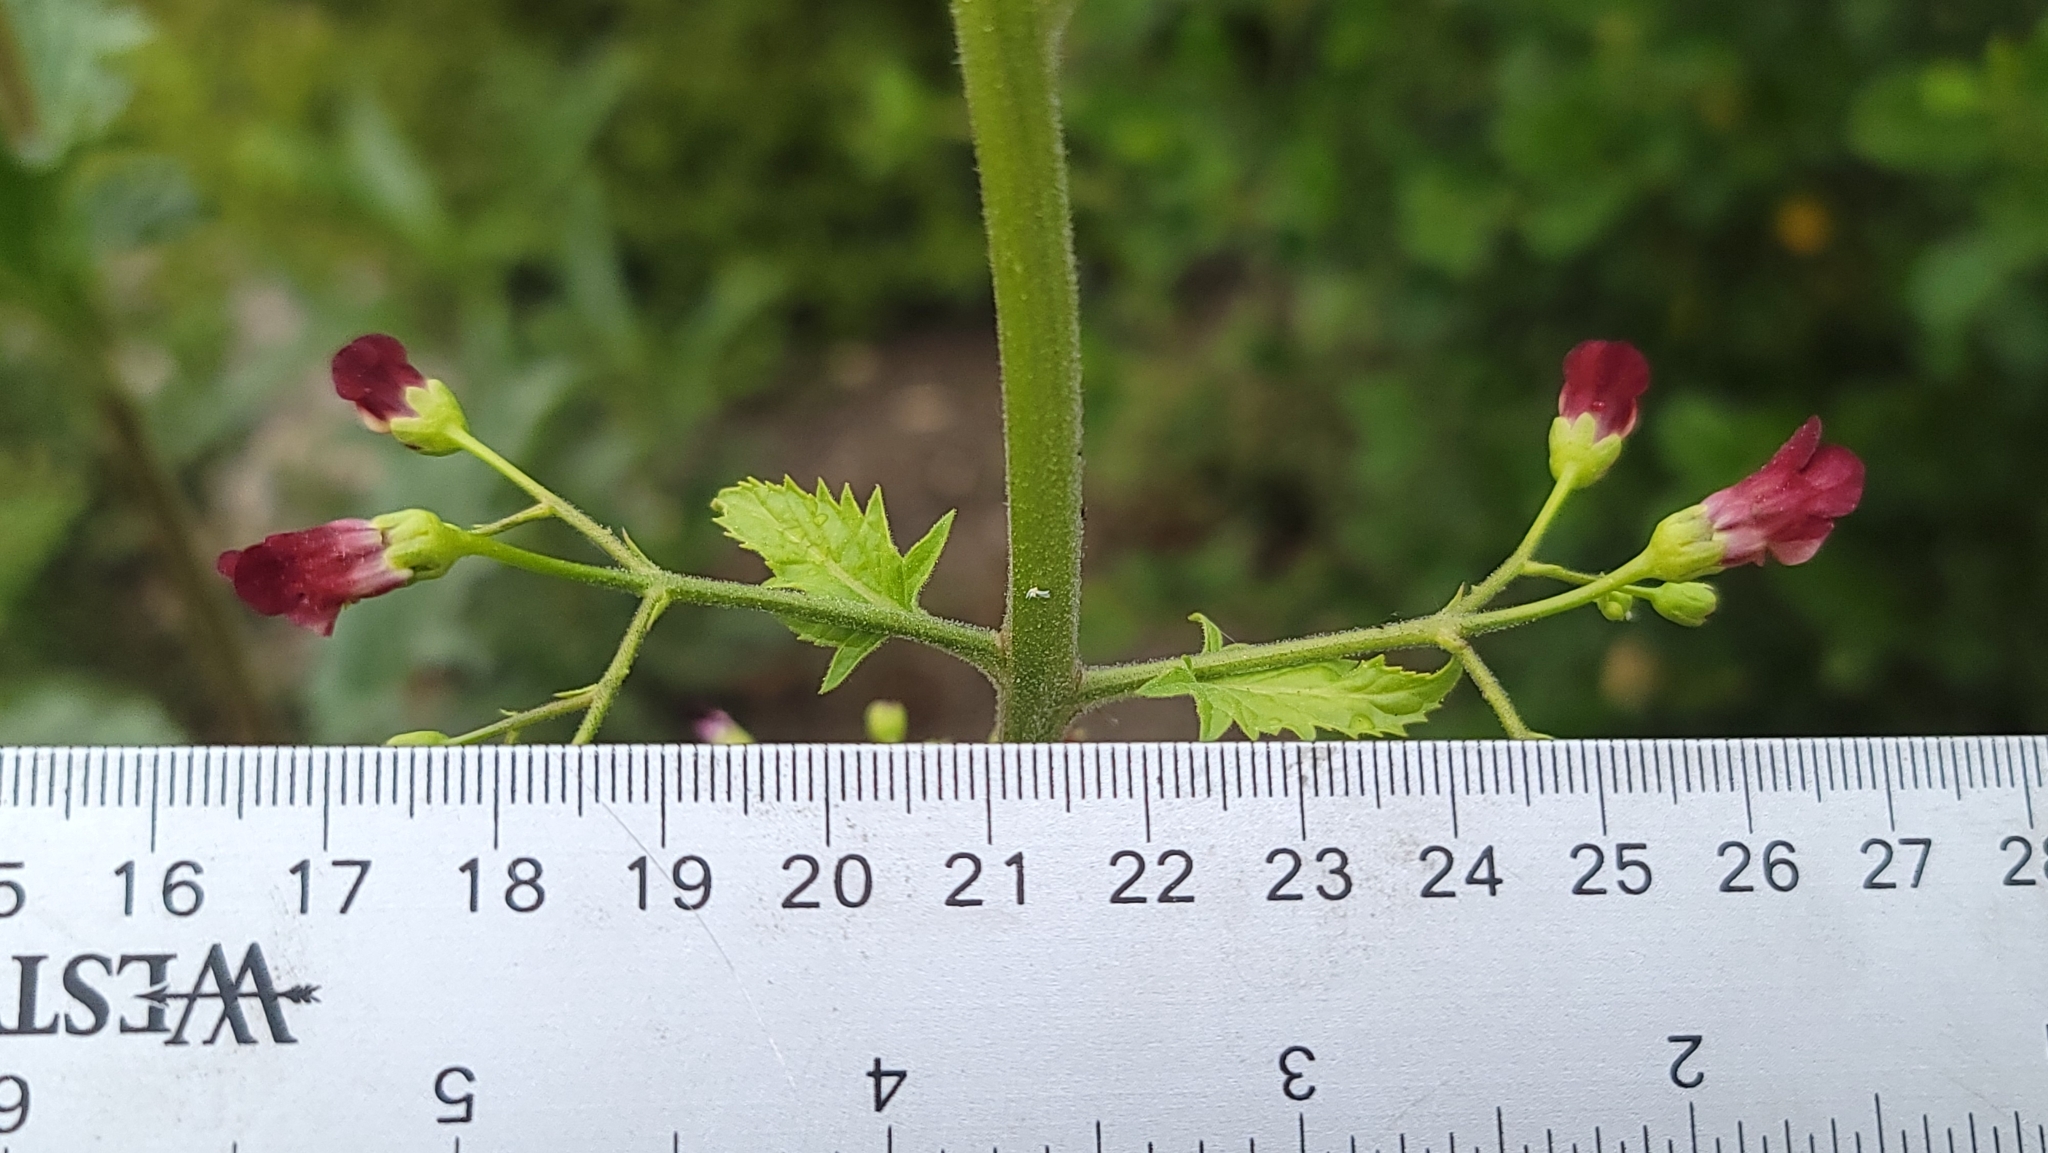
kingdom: Plantae
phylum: Tracheophyta
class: Magnoliopsida
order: Lamiales
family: Scrophulariaceae
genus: Scrophularia
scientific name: Scrophularia californica
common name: California figwort
